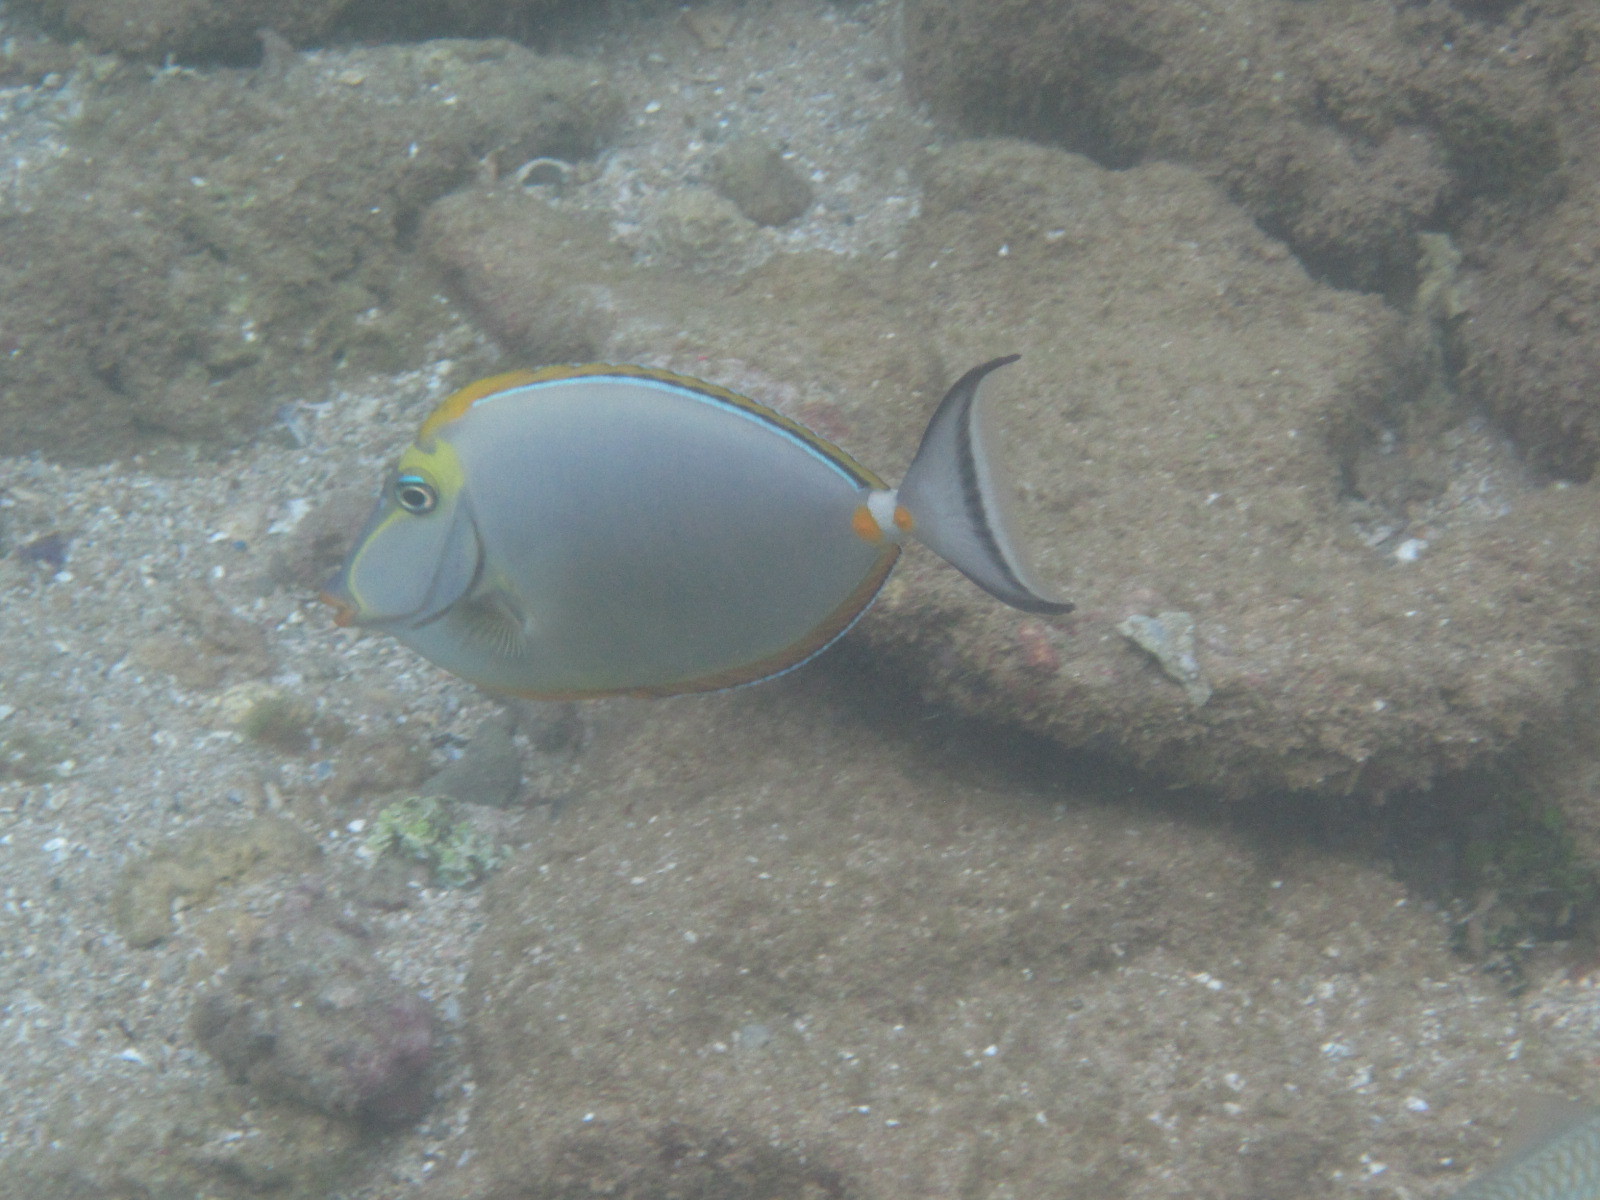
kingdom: Animalia
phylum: Chordata
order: Perciformes
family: Acanthuridae
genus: Naso
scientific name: Naso elegans
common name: Orangespine unicornfish
